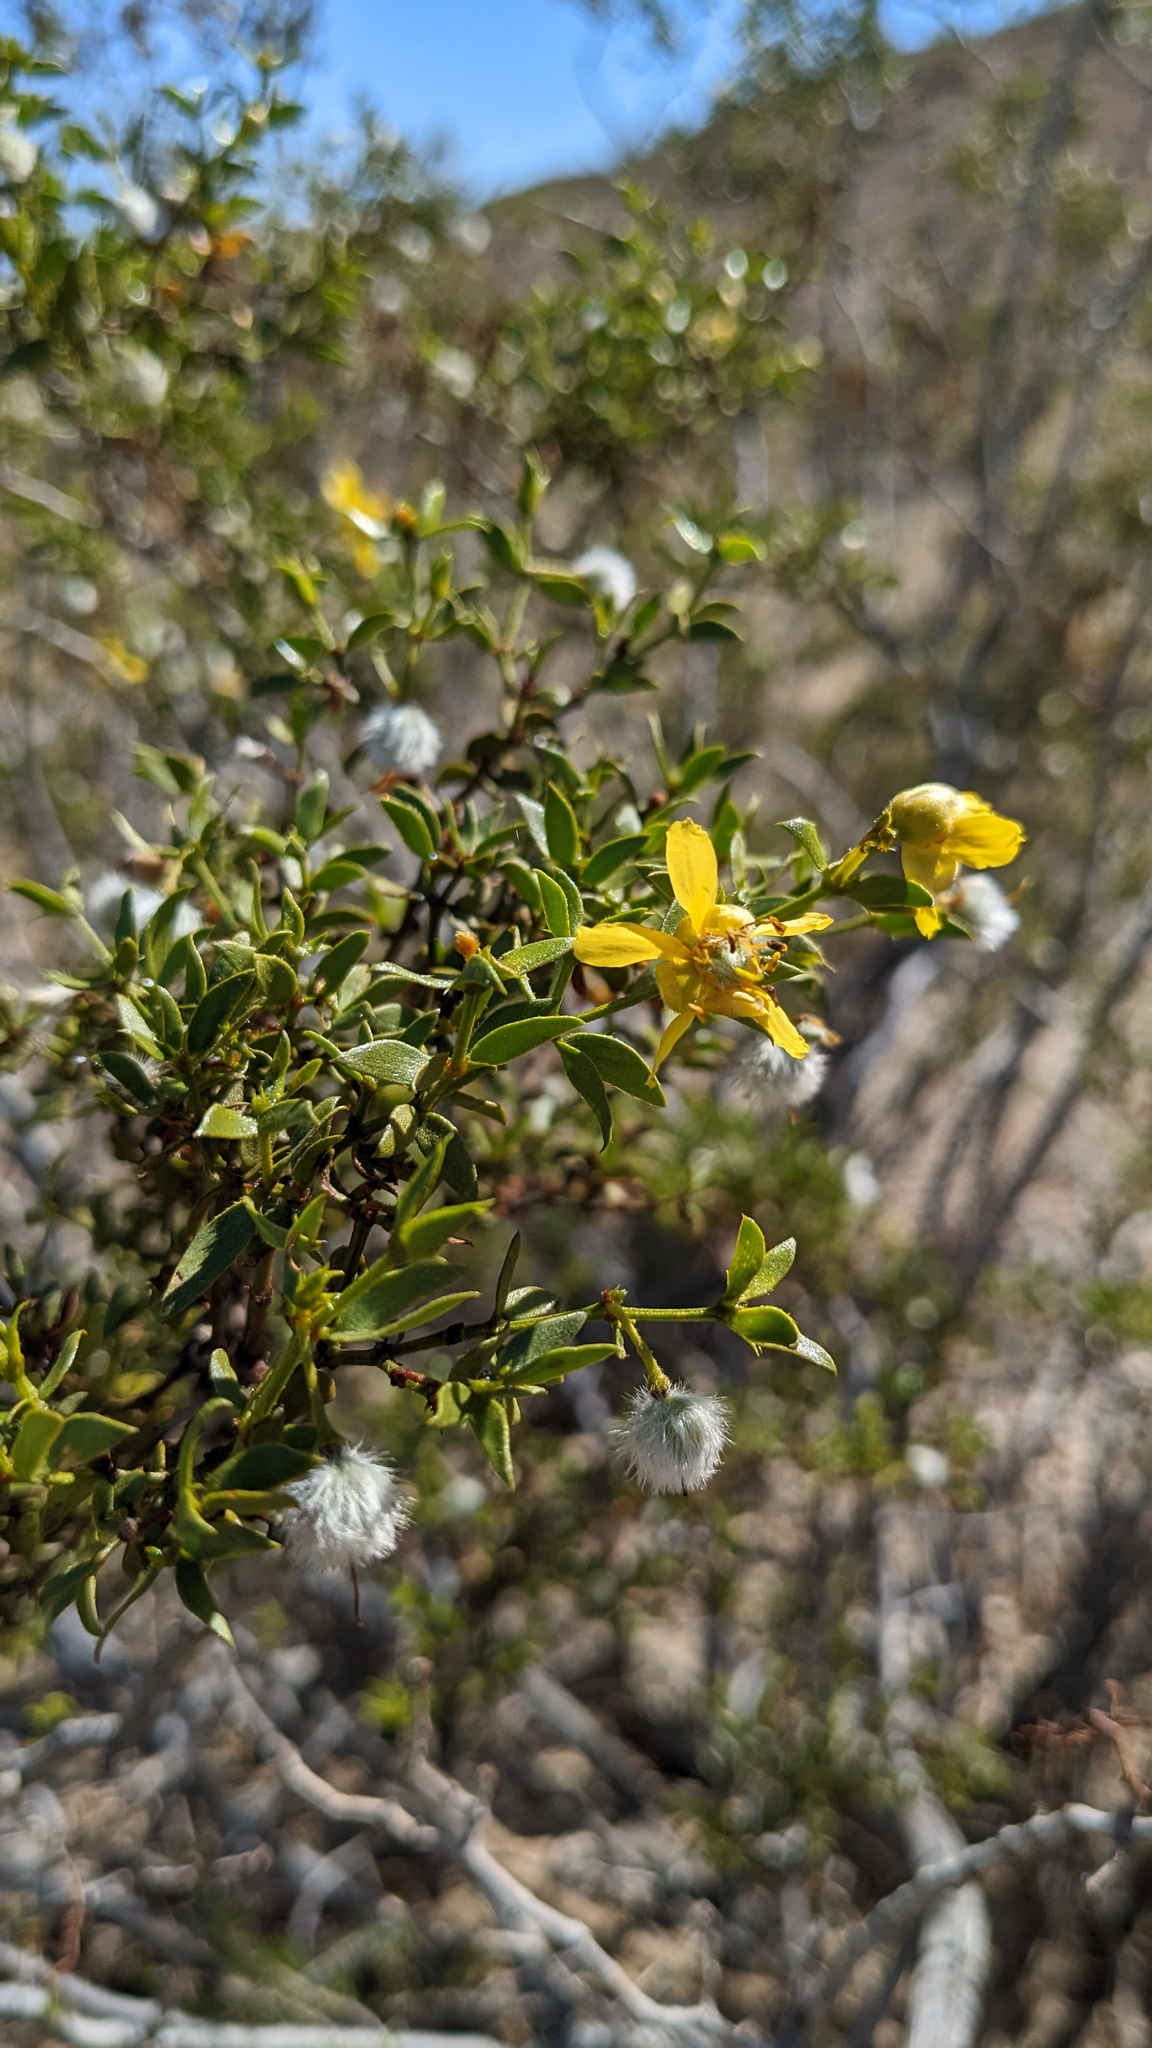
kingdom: Plantae
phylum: Tracheophyta
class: Magnoliopsida
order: Zygophyllales
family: Zygophyllaceae
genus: Larrea
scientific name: Larrea tridentata
